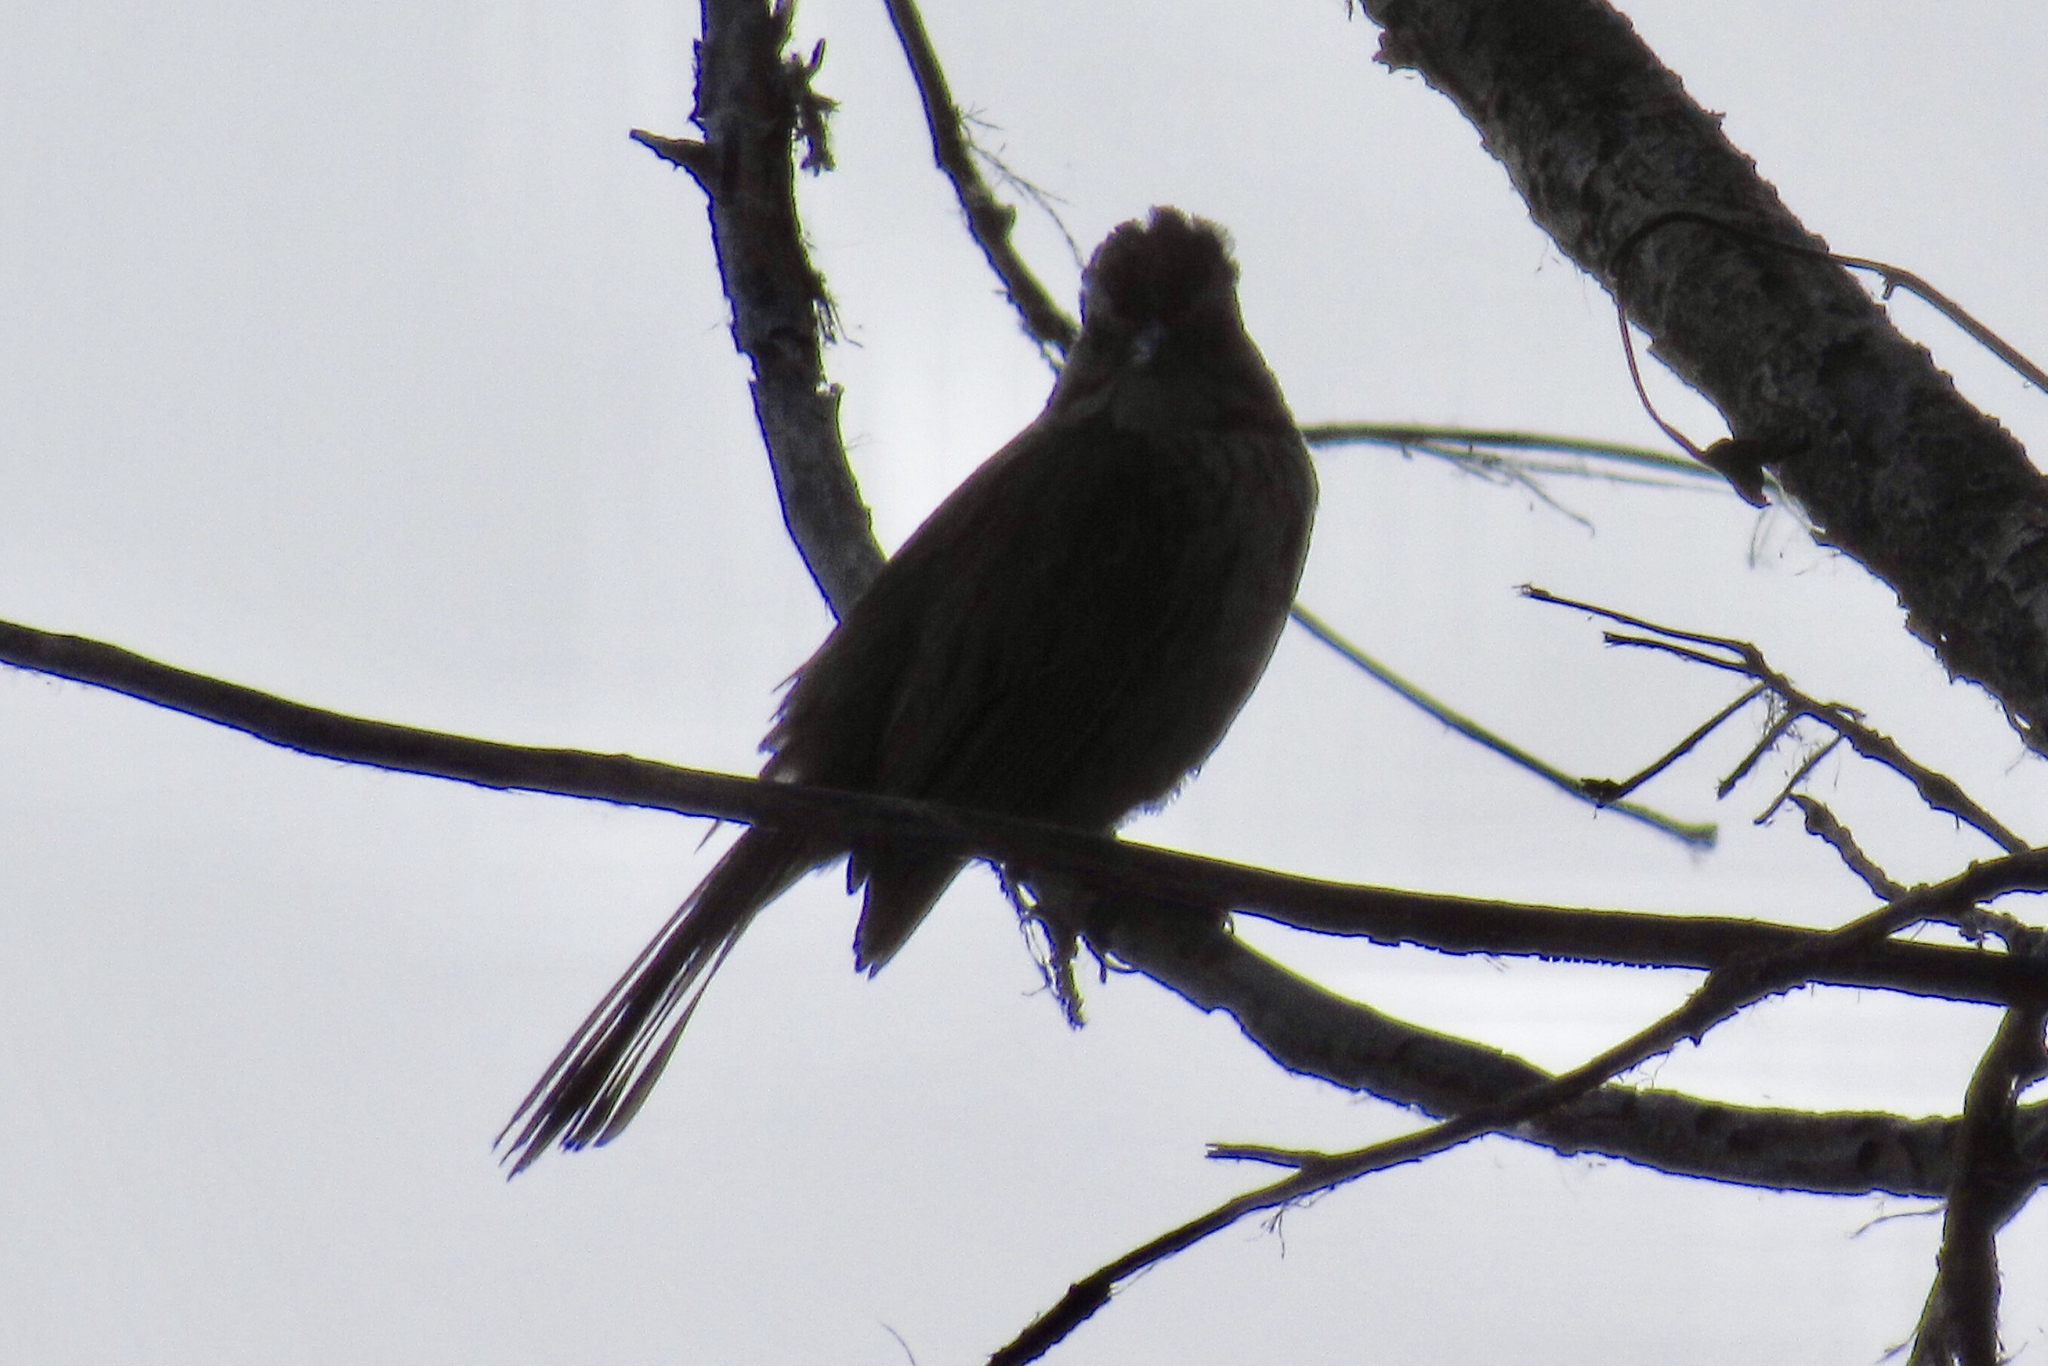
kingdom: Animalia
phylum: Chordata
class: Aves
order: Passeriformes
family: Passerellidae
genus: Melospiza
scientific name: Melospiza melodia
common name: Song sparrow
